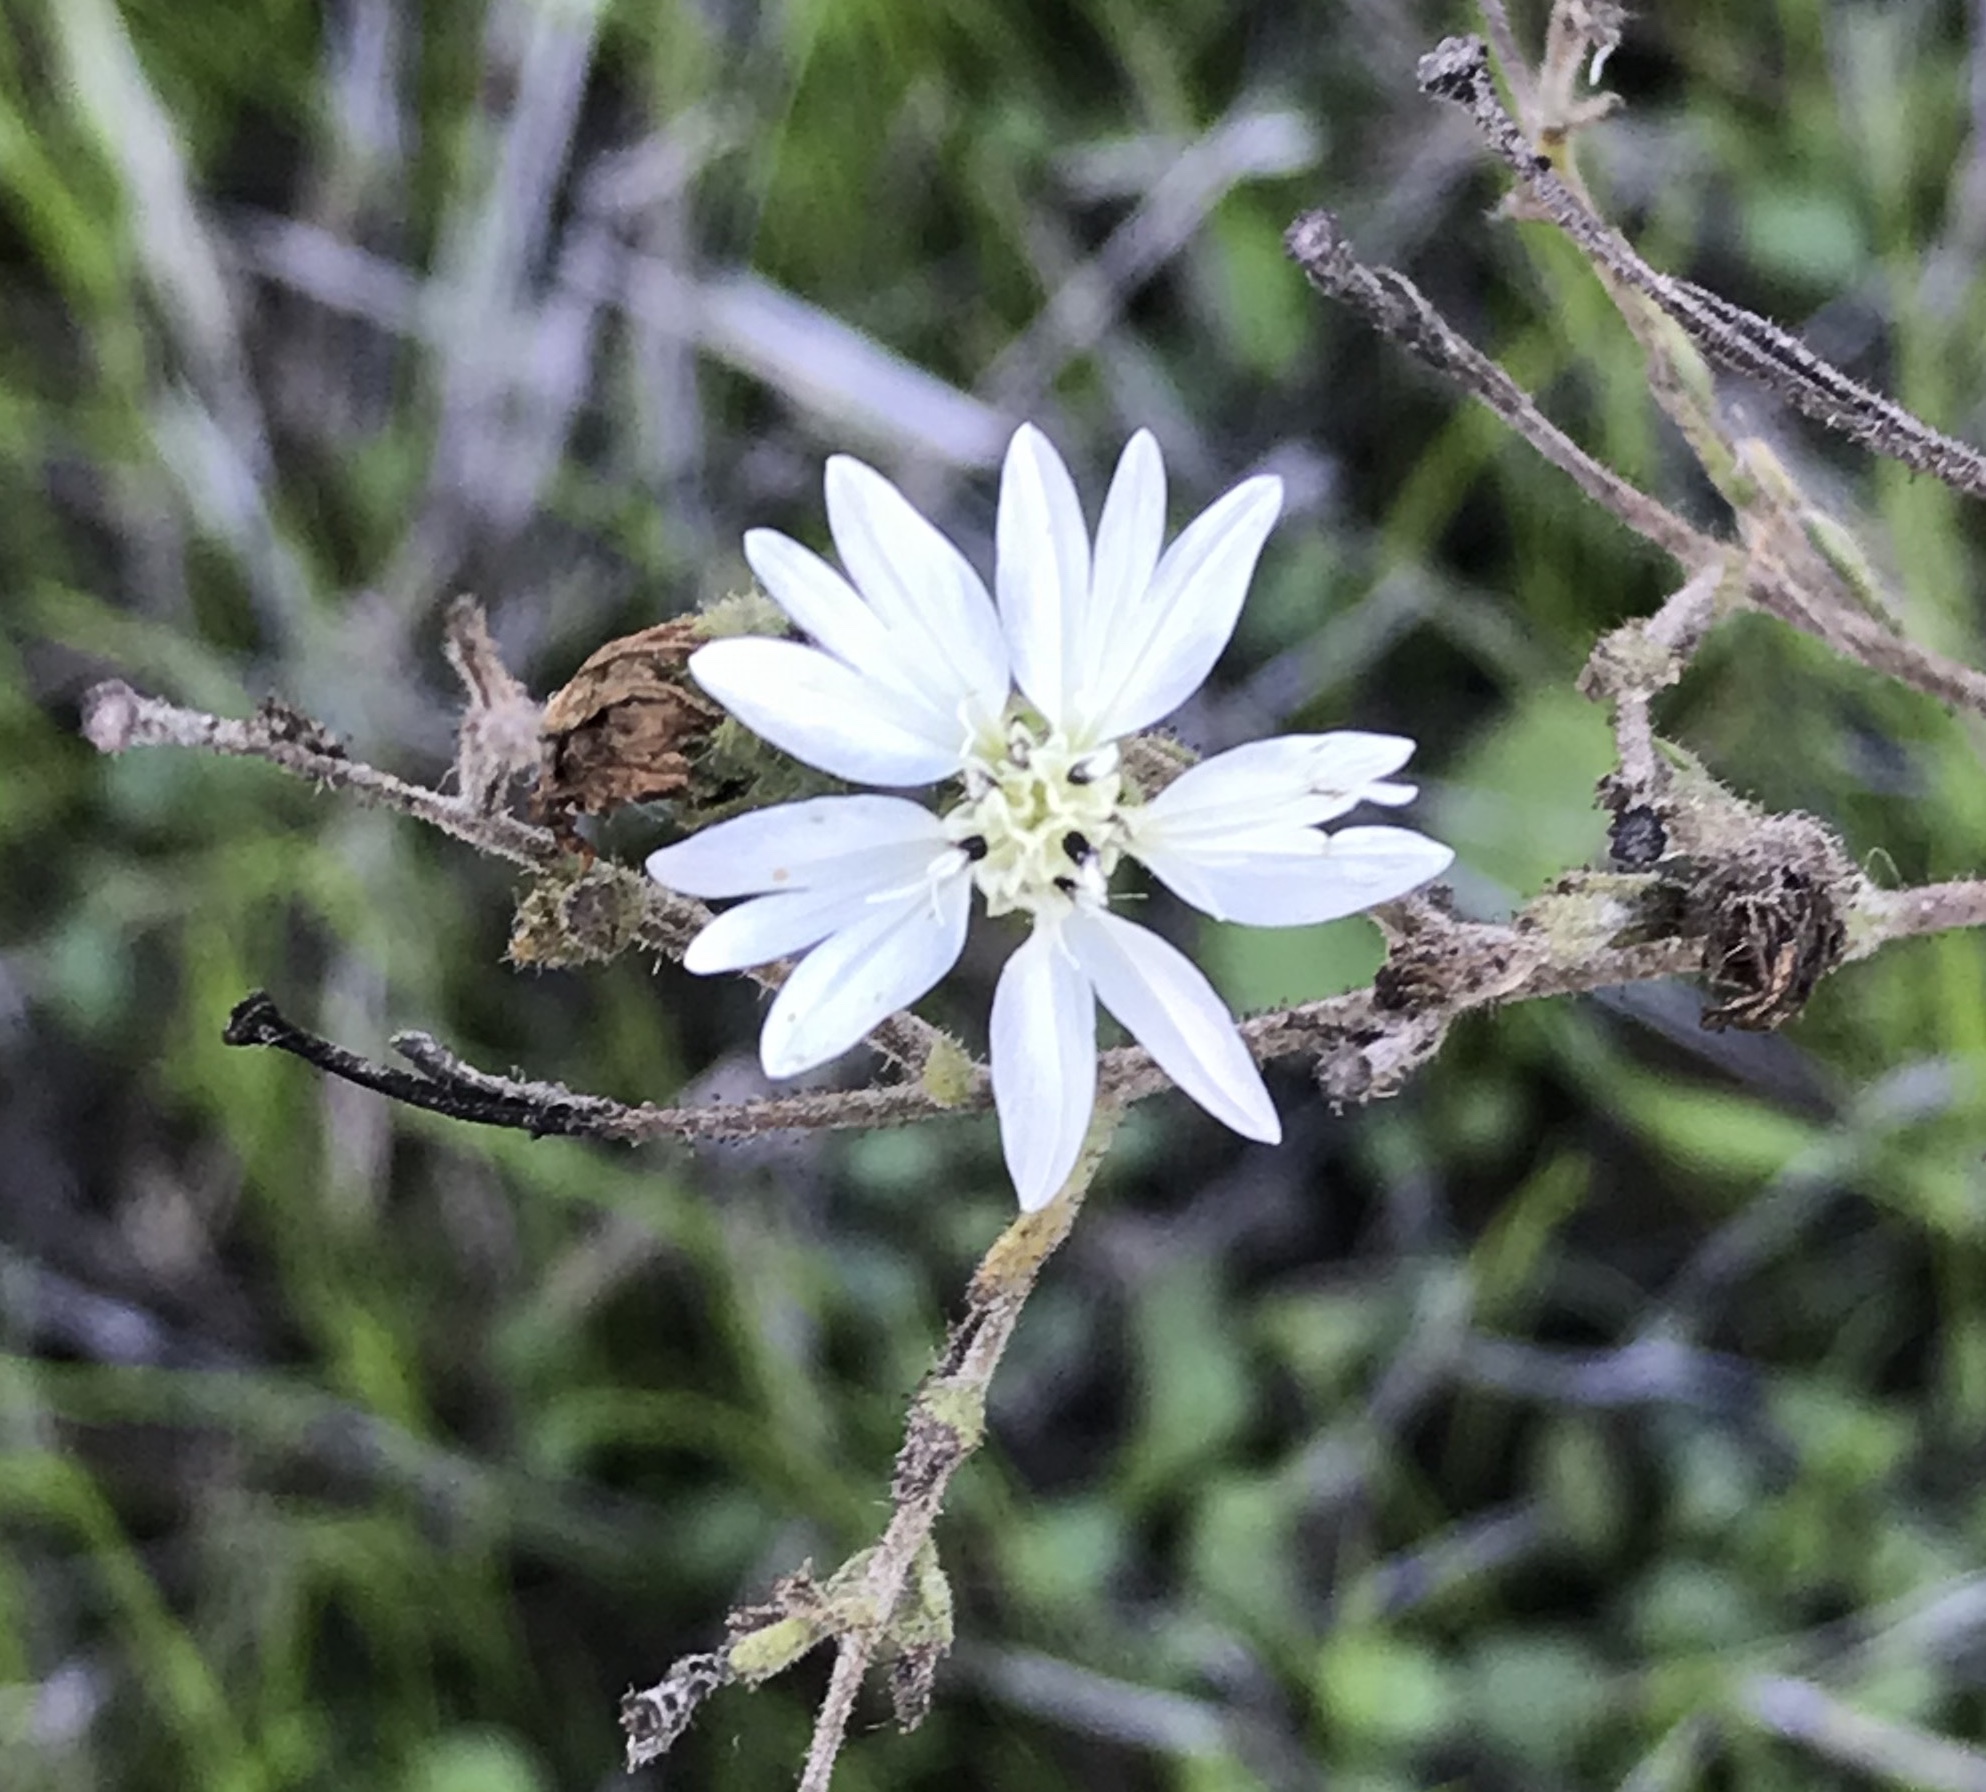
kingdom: Plantae
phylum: Tracheophyta
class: Magnoliopsida
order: Asterales
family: Asteraceae
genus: Hemizonia
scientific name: Hemizonia congesta
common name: Hayfield tarweed
